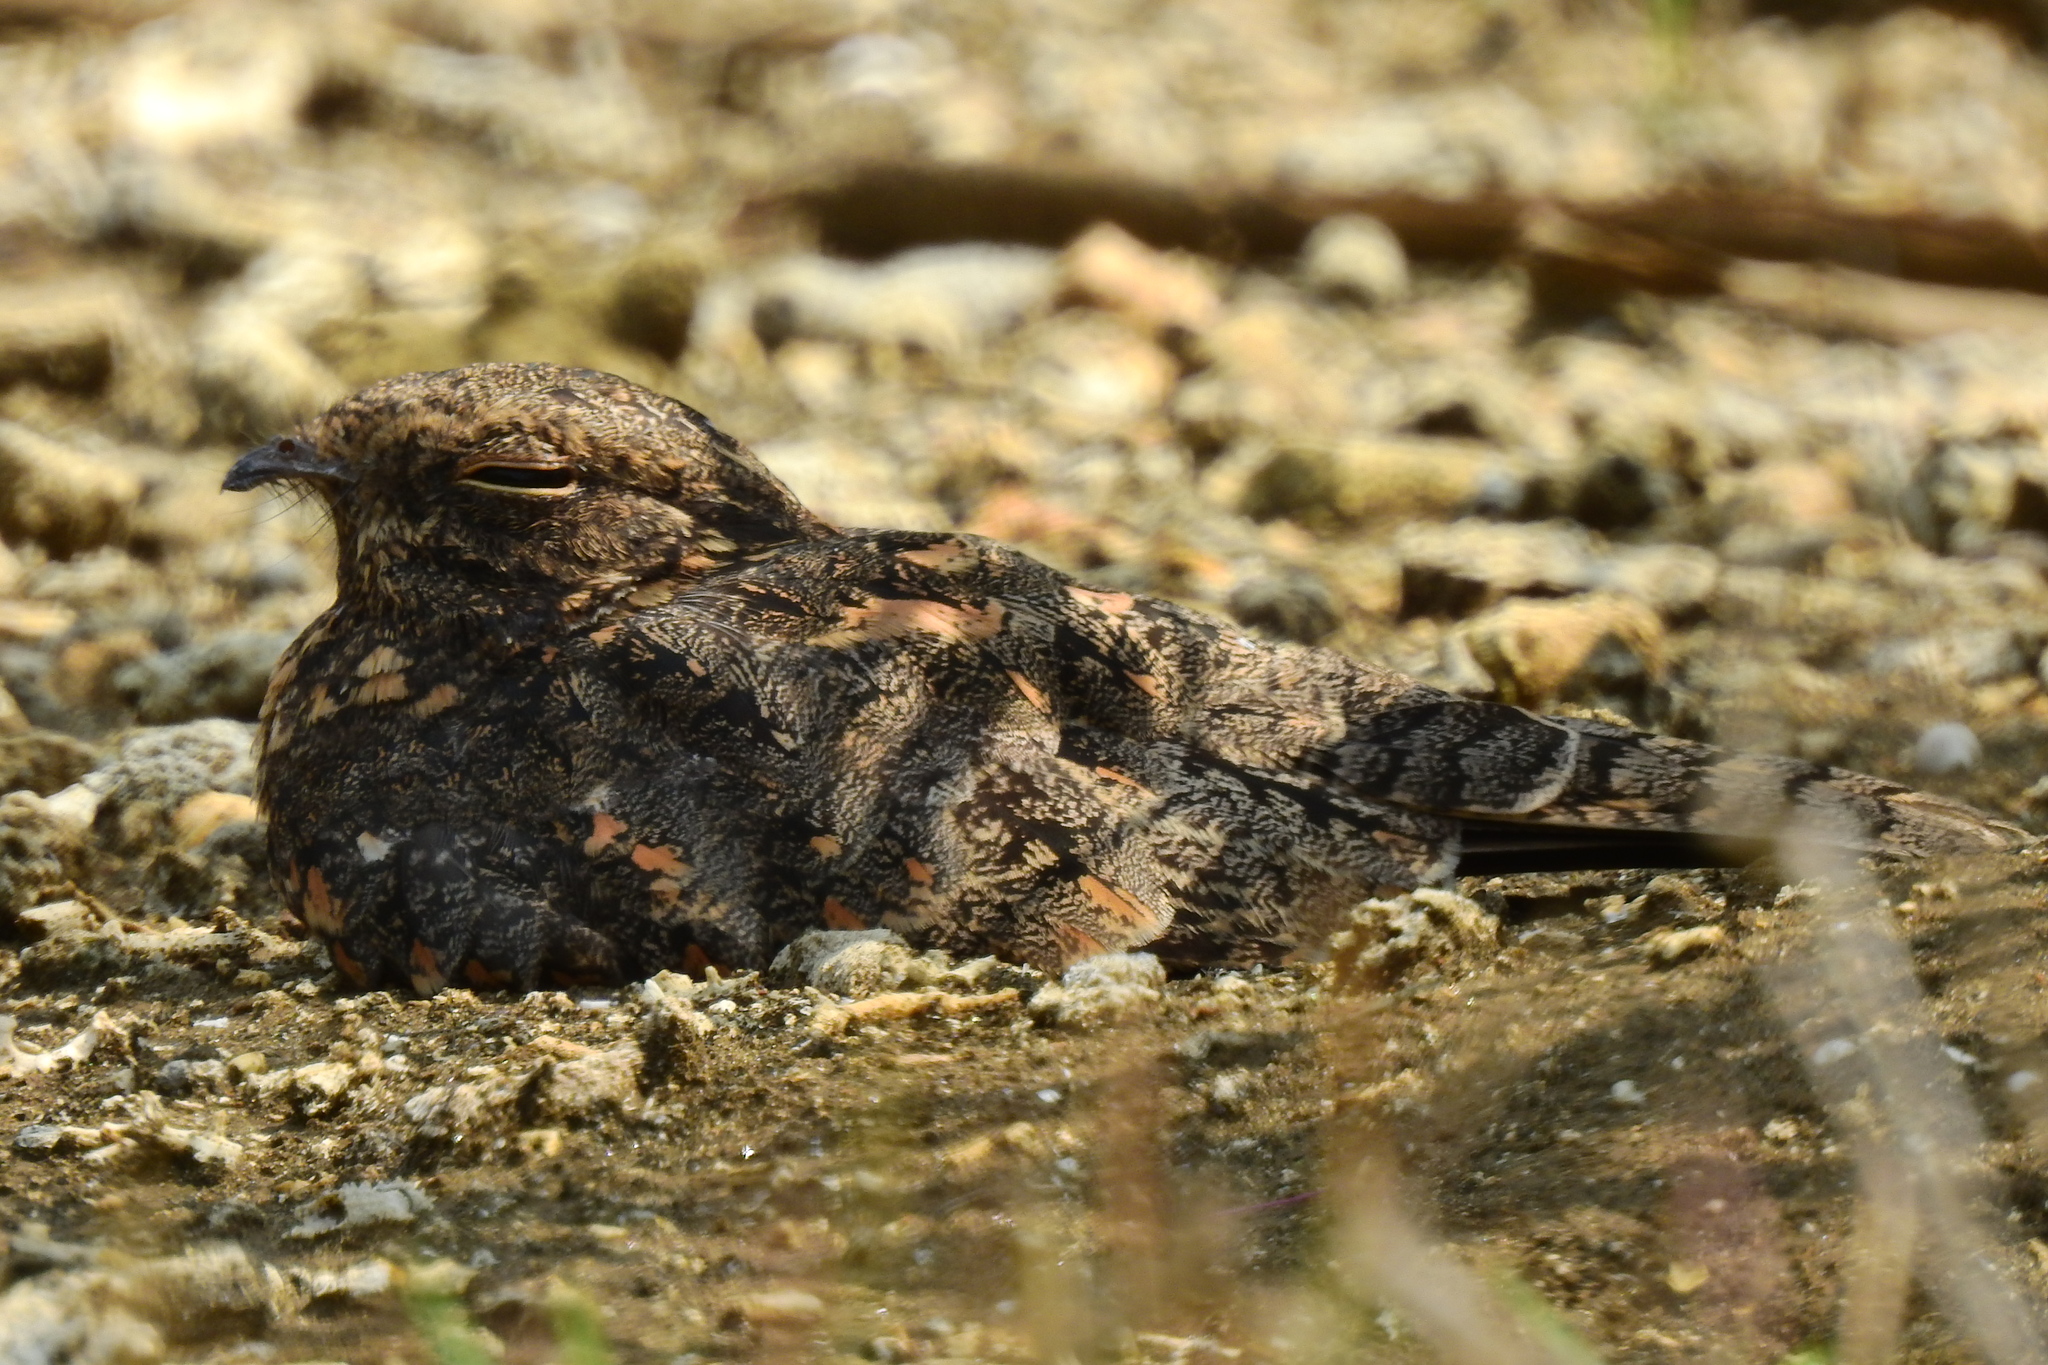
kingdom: Animalia
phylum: Chordata
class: Aves
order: Caprimulgiformes
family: Caprimulgidae
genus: Caprimulgus
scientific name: Caprimulgus affinis
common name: Savanna nightjar
